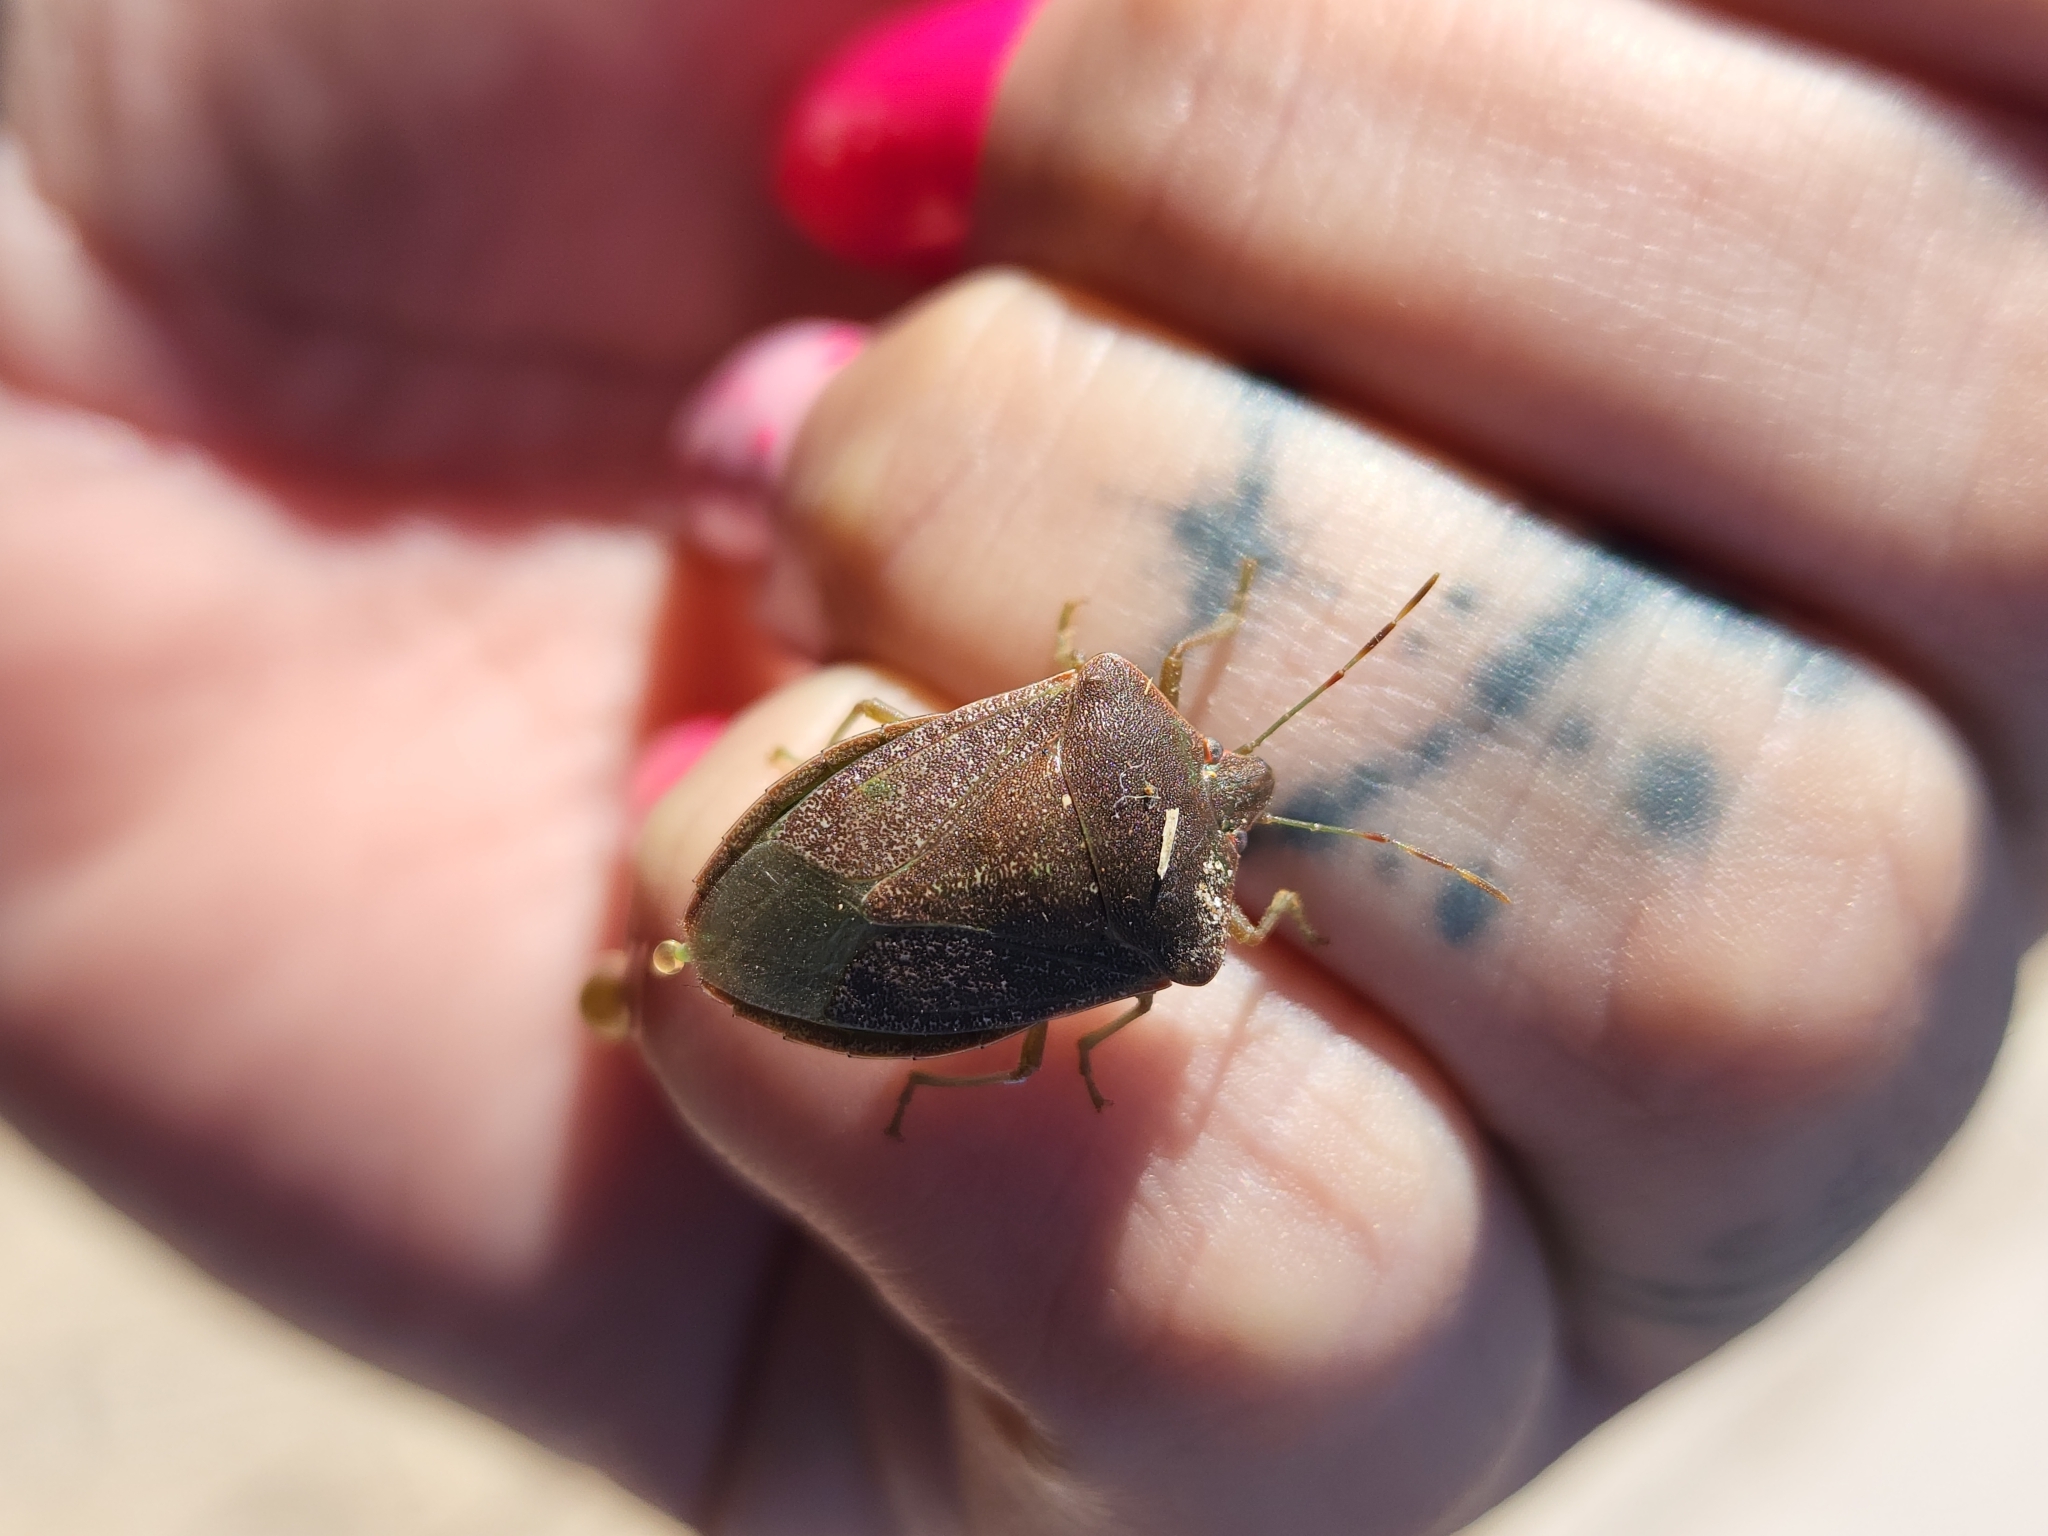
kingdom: Animalia
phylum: Arthropoda
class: Insecta
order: Hemiptera
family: Pentatomidae
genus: Nezara
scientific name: Nezara viridula
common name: Southern green stink bug
